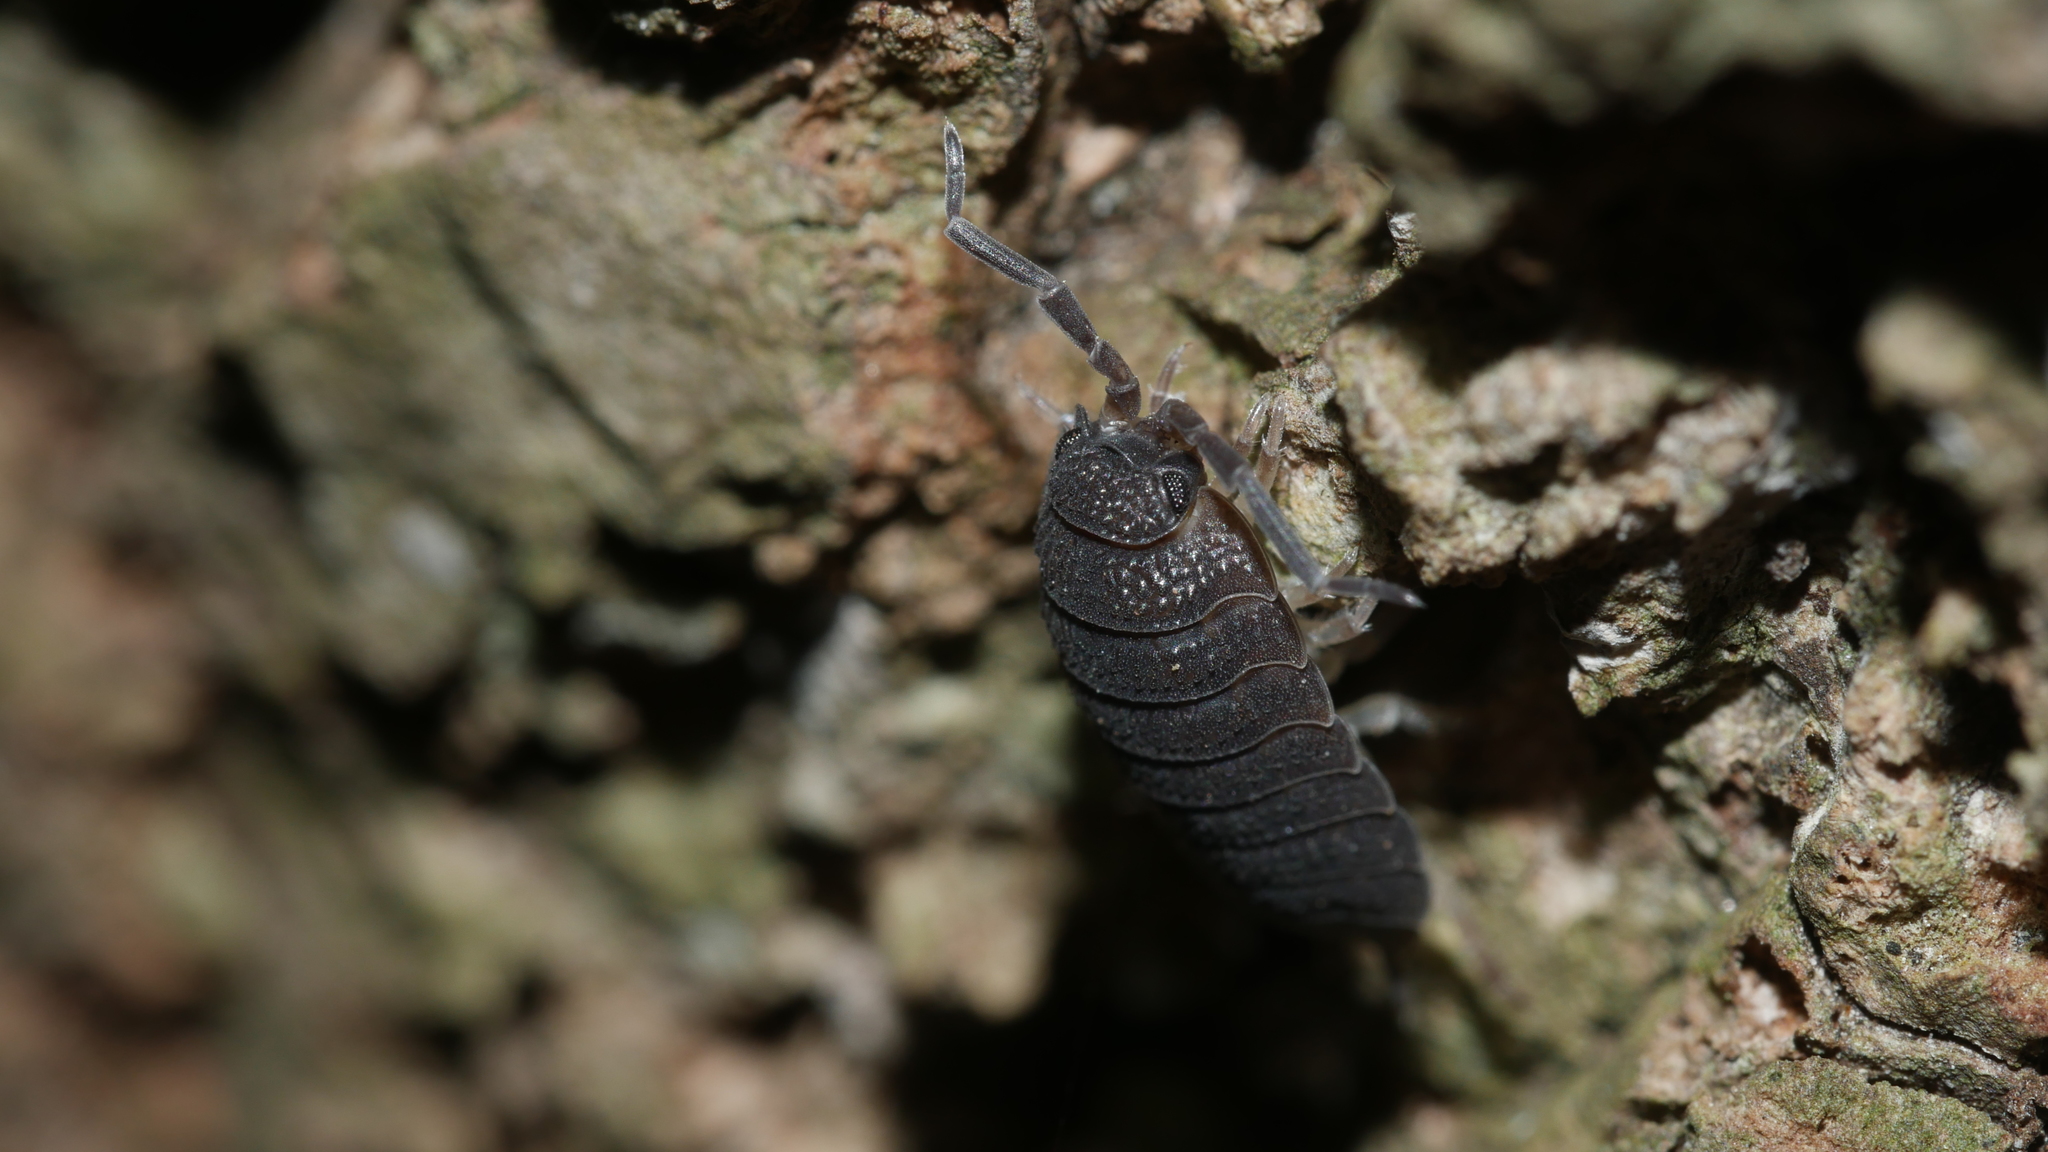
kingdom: Animalia
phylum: Arthropoda
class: Malacostraca
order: Isopoda
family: Porcellionidae
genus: Porcellio
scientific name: Porcellio scaber
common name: Common rough woodlouse
